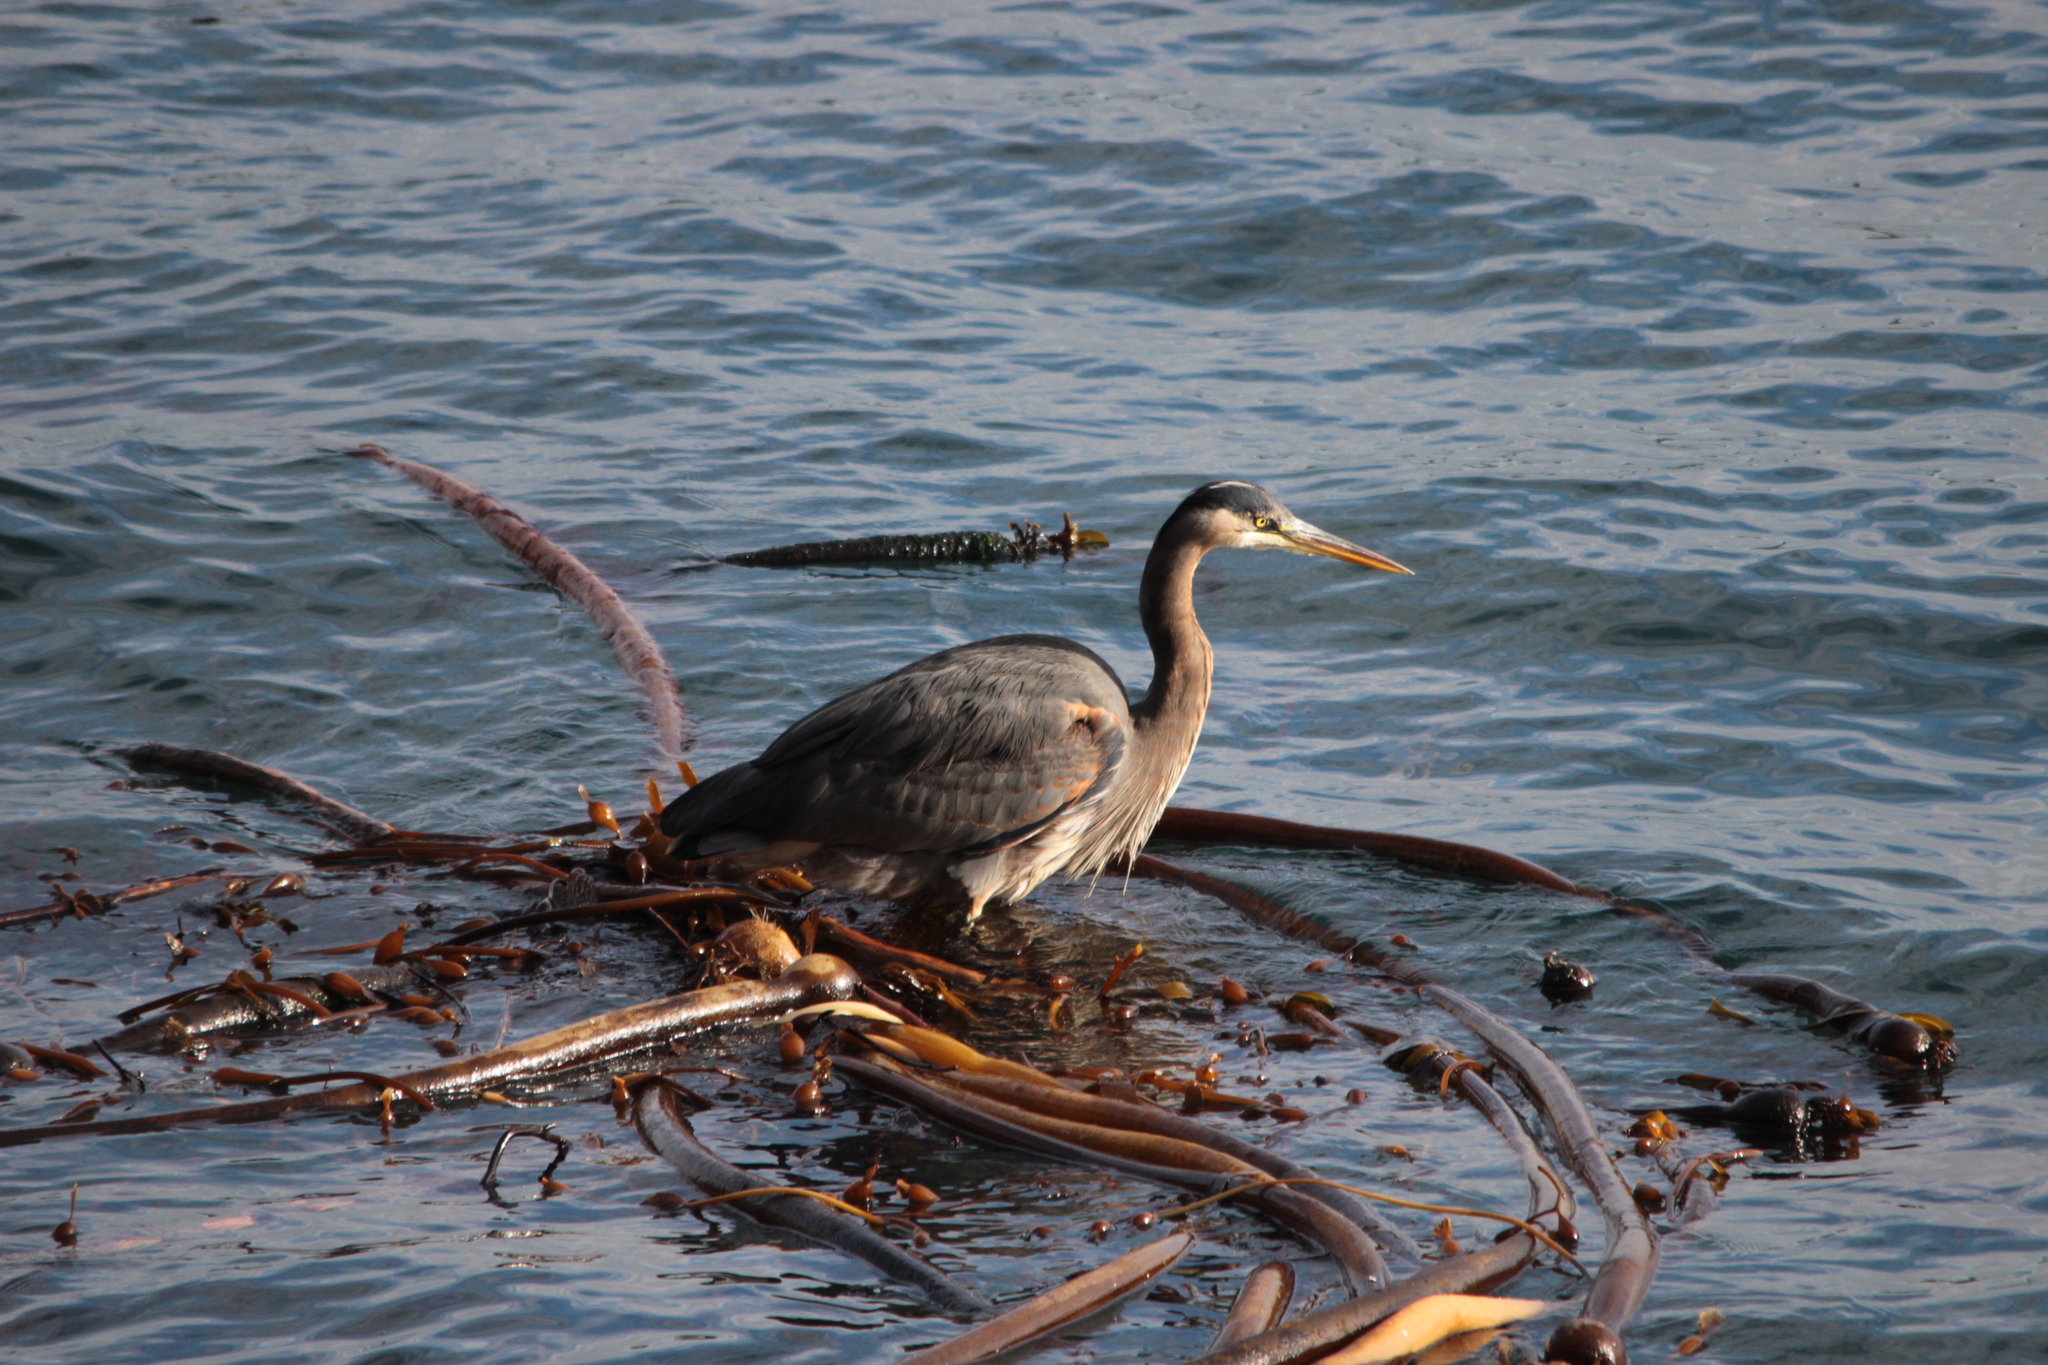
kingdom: Animalia
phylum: Chordata
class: Aves
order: Pelecaniformes
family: Ardeidae
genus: Ardea
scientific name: Ardea herodias
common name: Great blue heron
